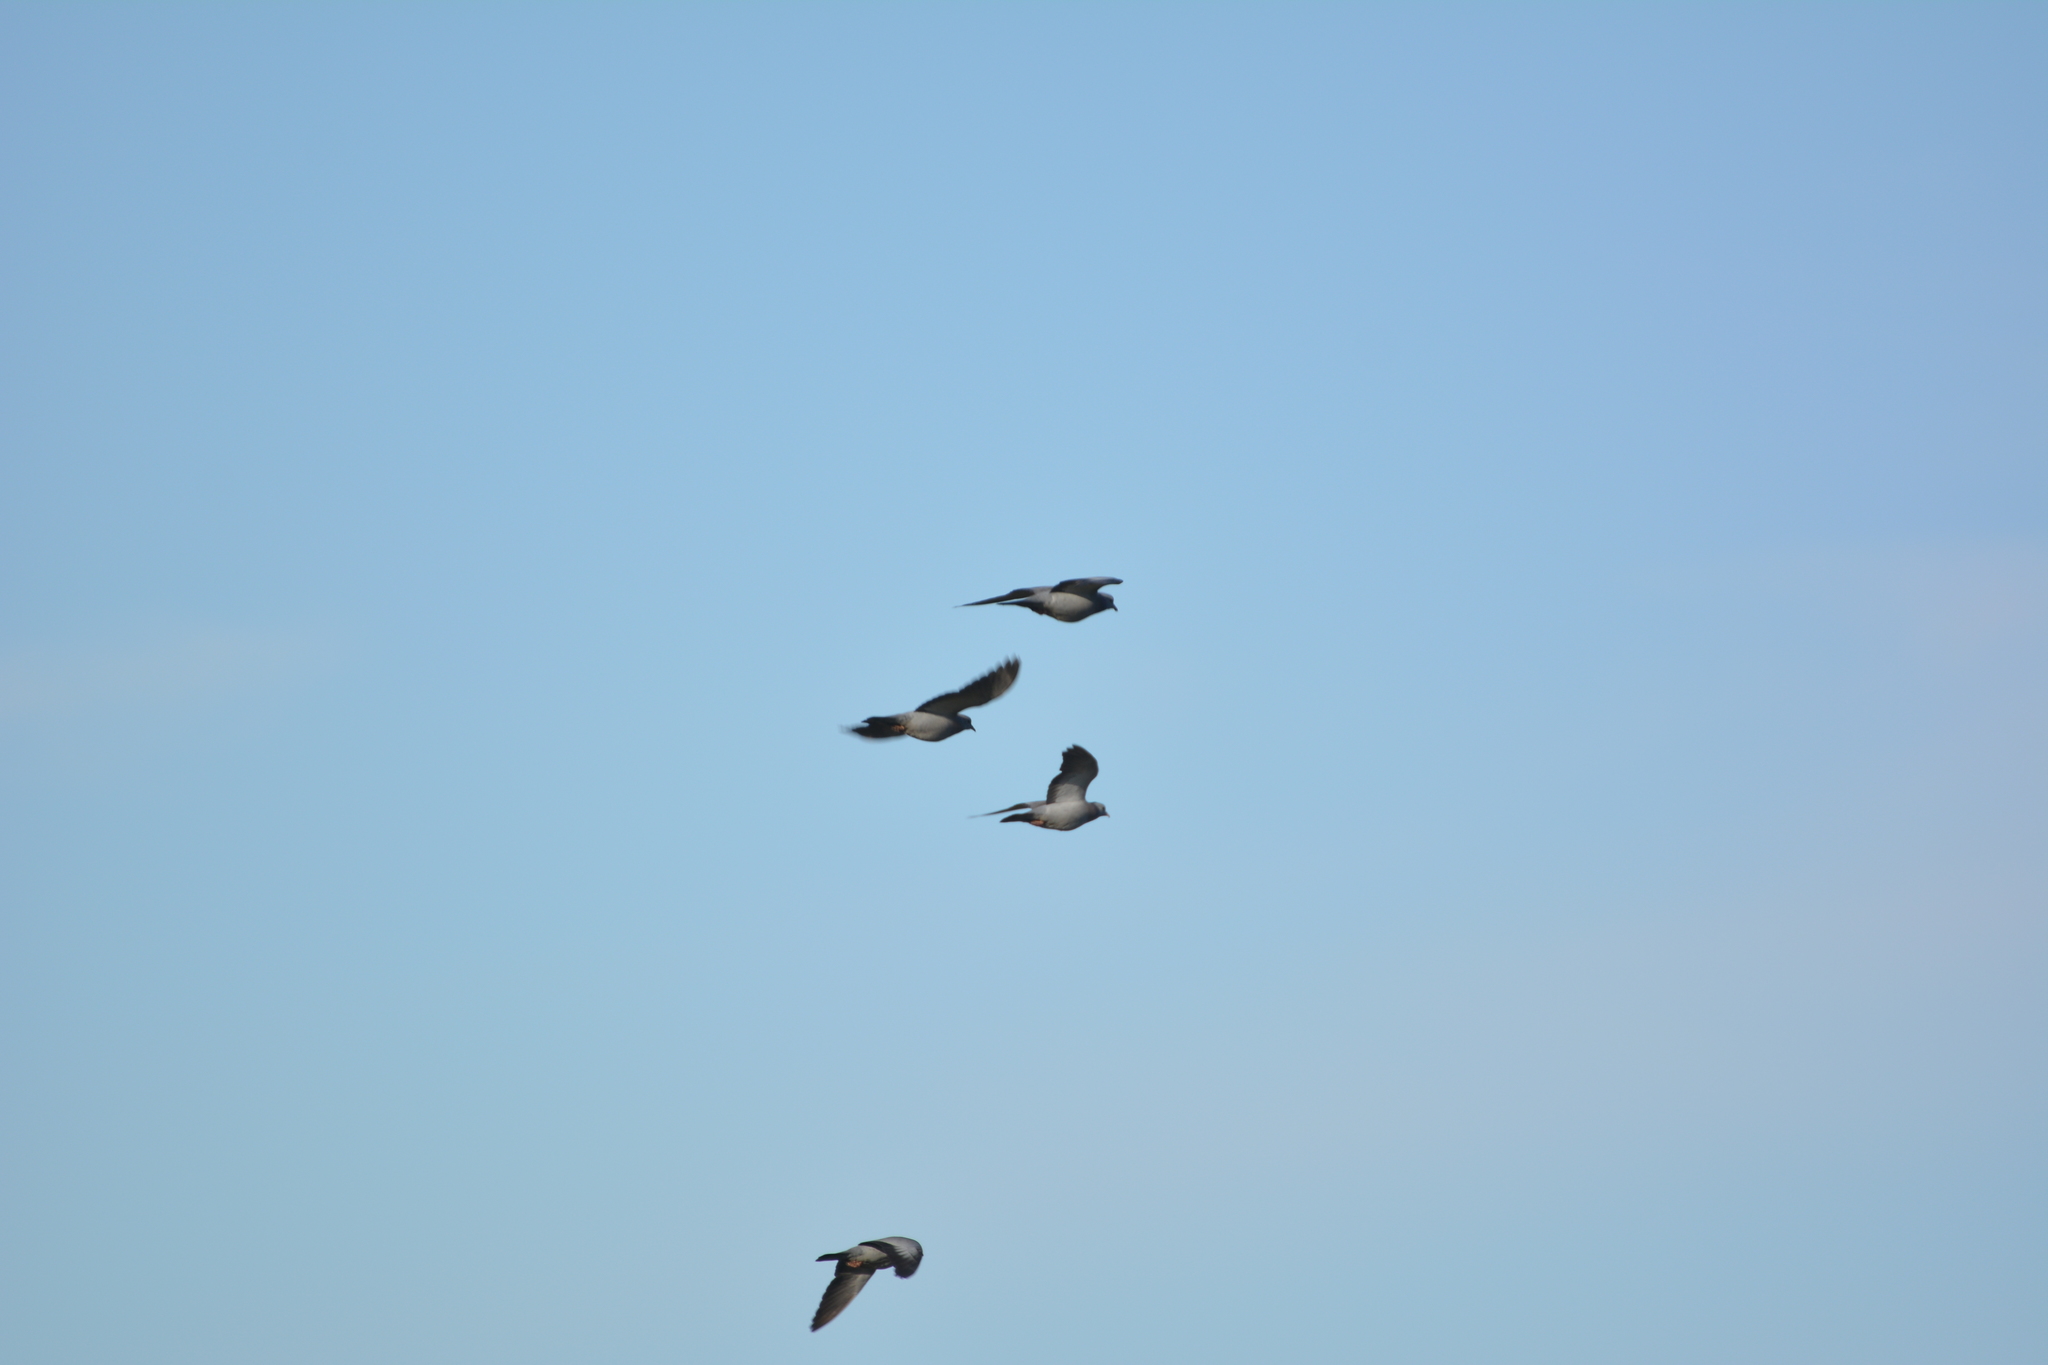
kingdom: Animalia
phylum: Chordata
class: Aves
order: Columbiformes
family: Columbidae
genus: Columba
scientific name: Columba oenas
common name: Stock dove
